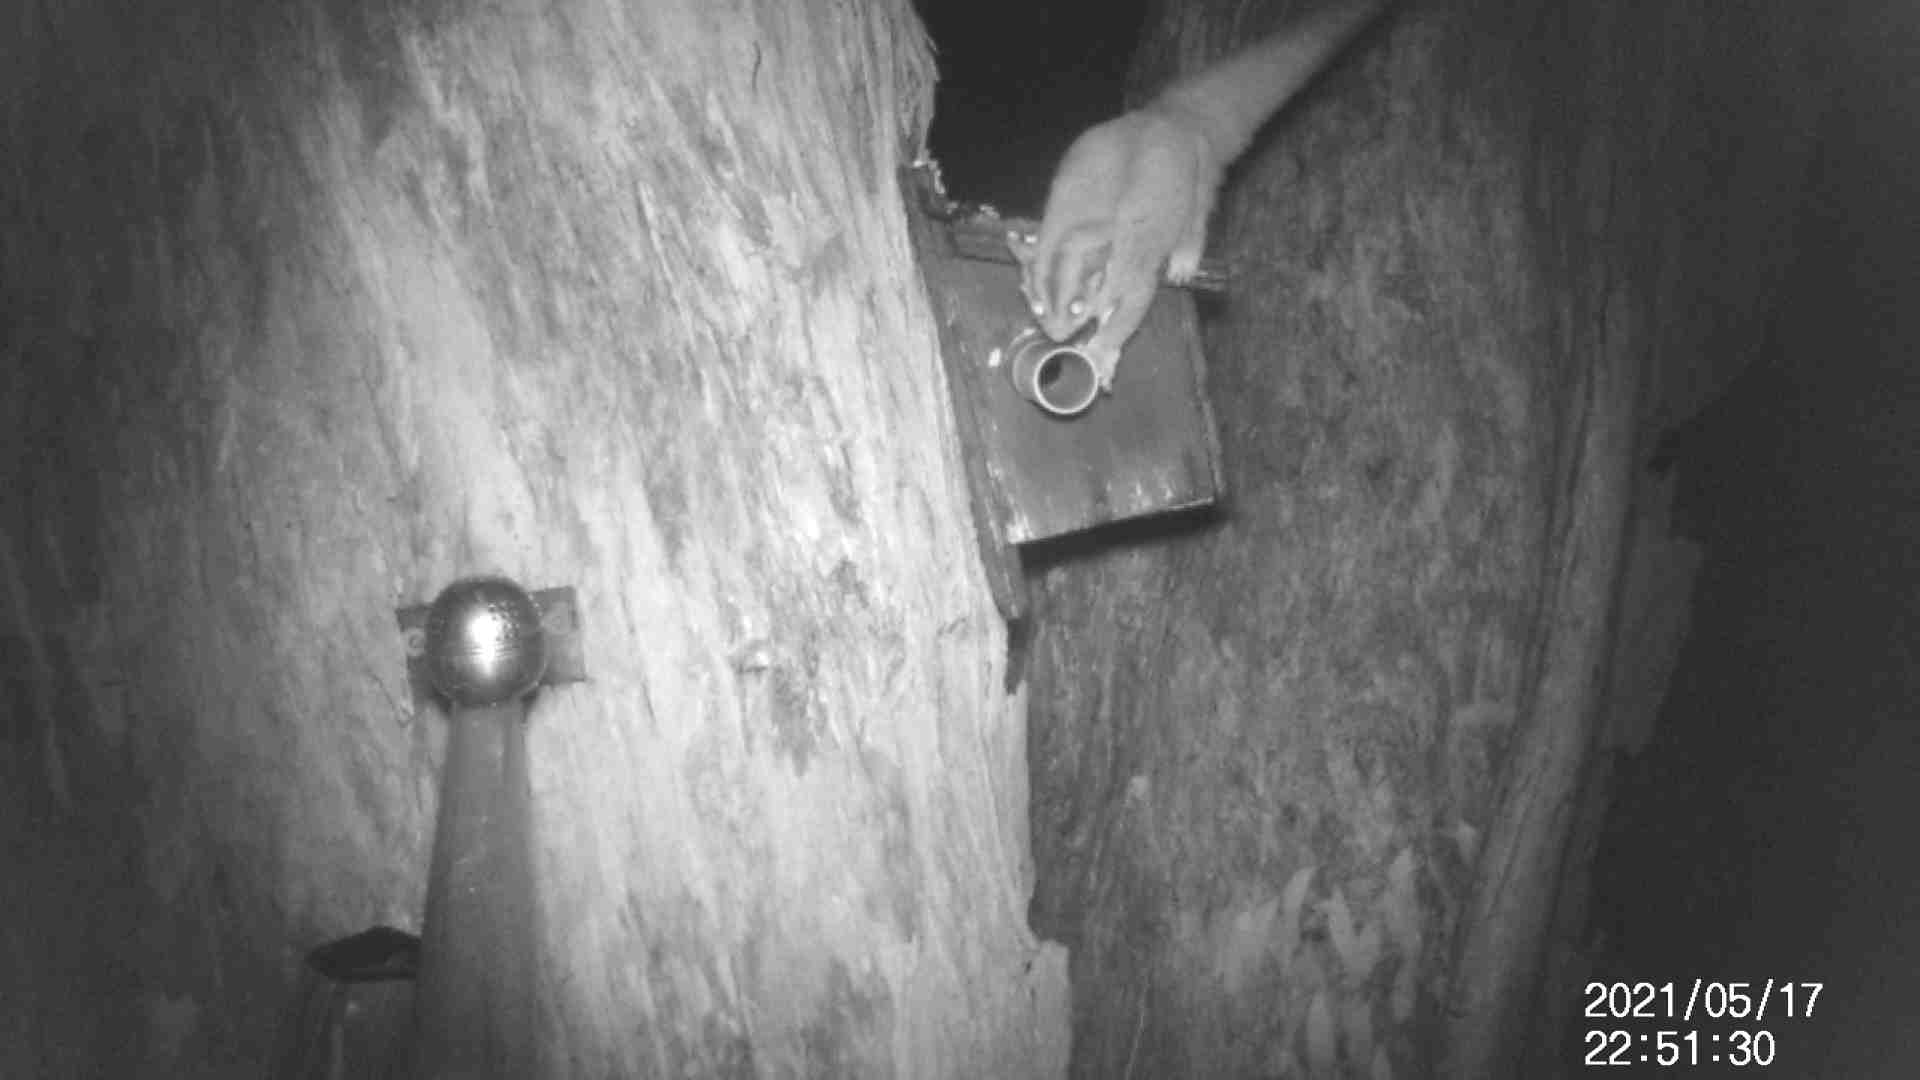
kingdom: Animalia
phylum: Chordata
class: Mammalia
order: Diprotodontia
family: Petauridae
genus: Petaurus
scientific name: Petaurus breviceps
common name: Sugar glider
